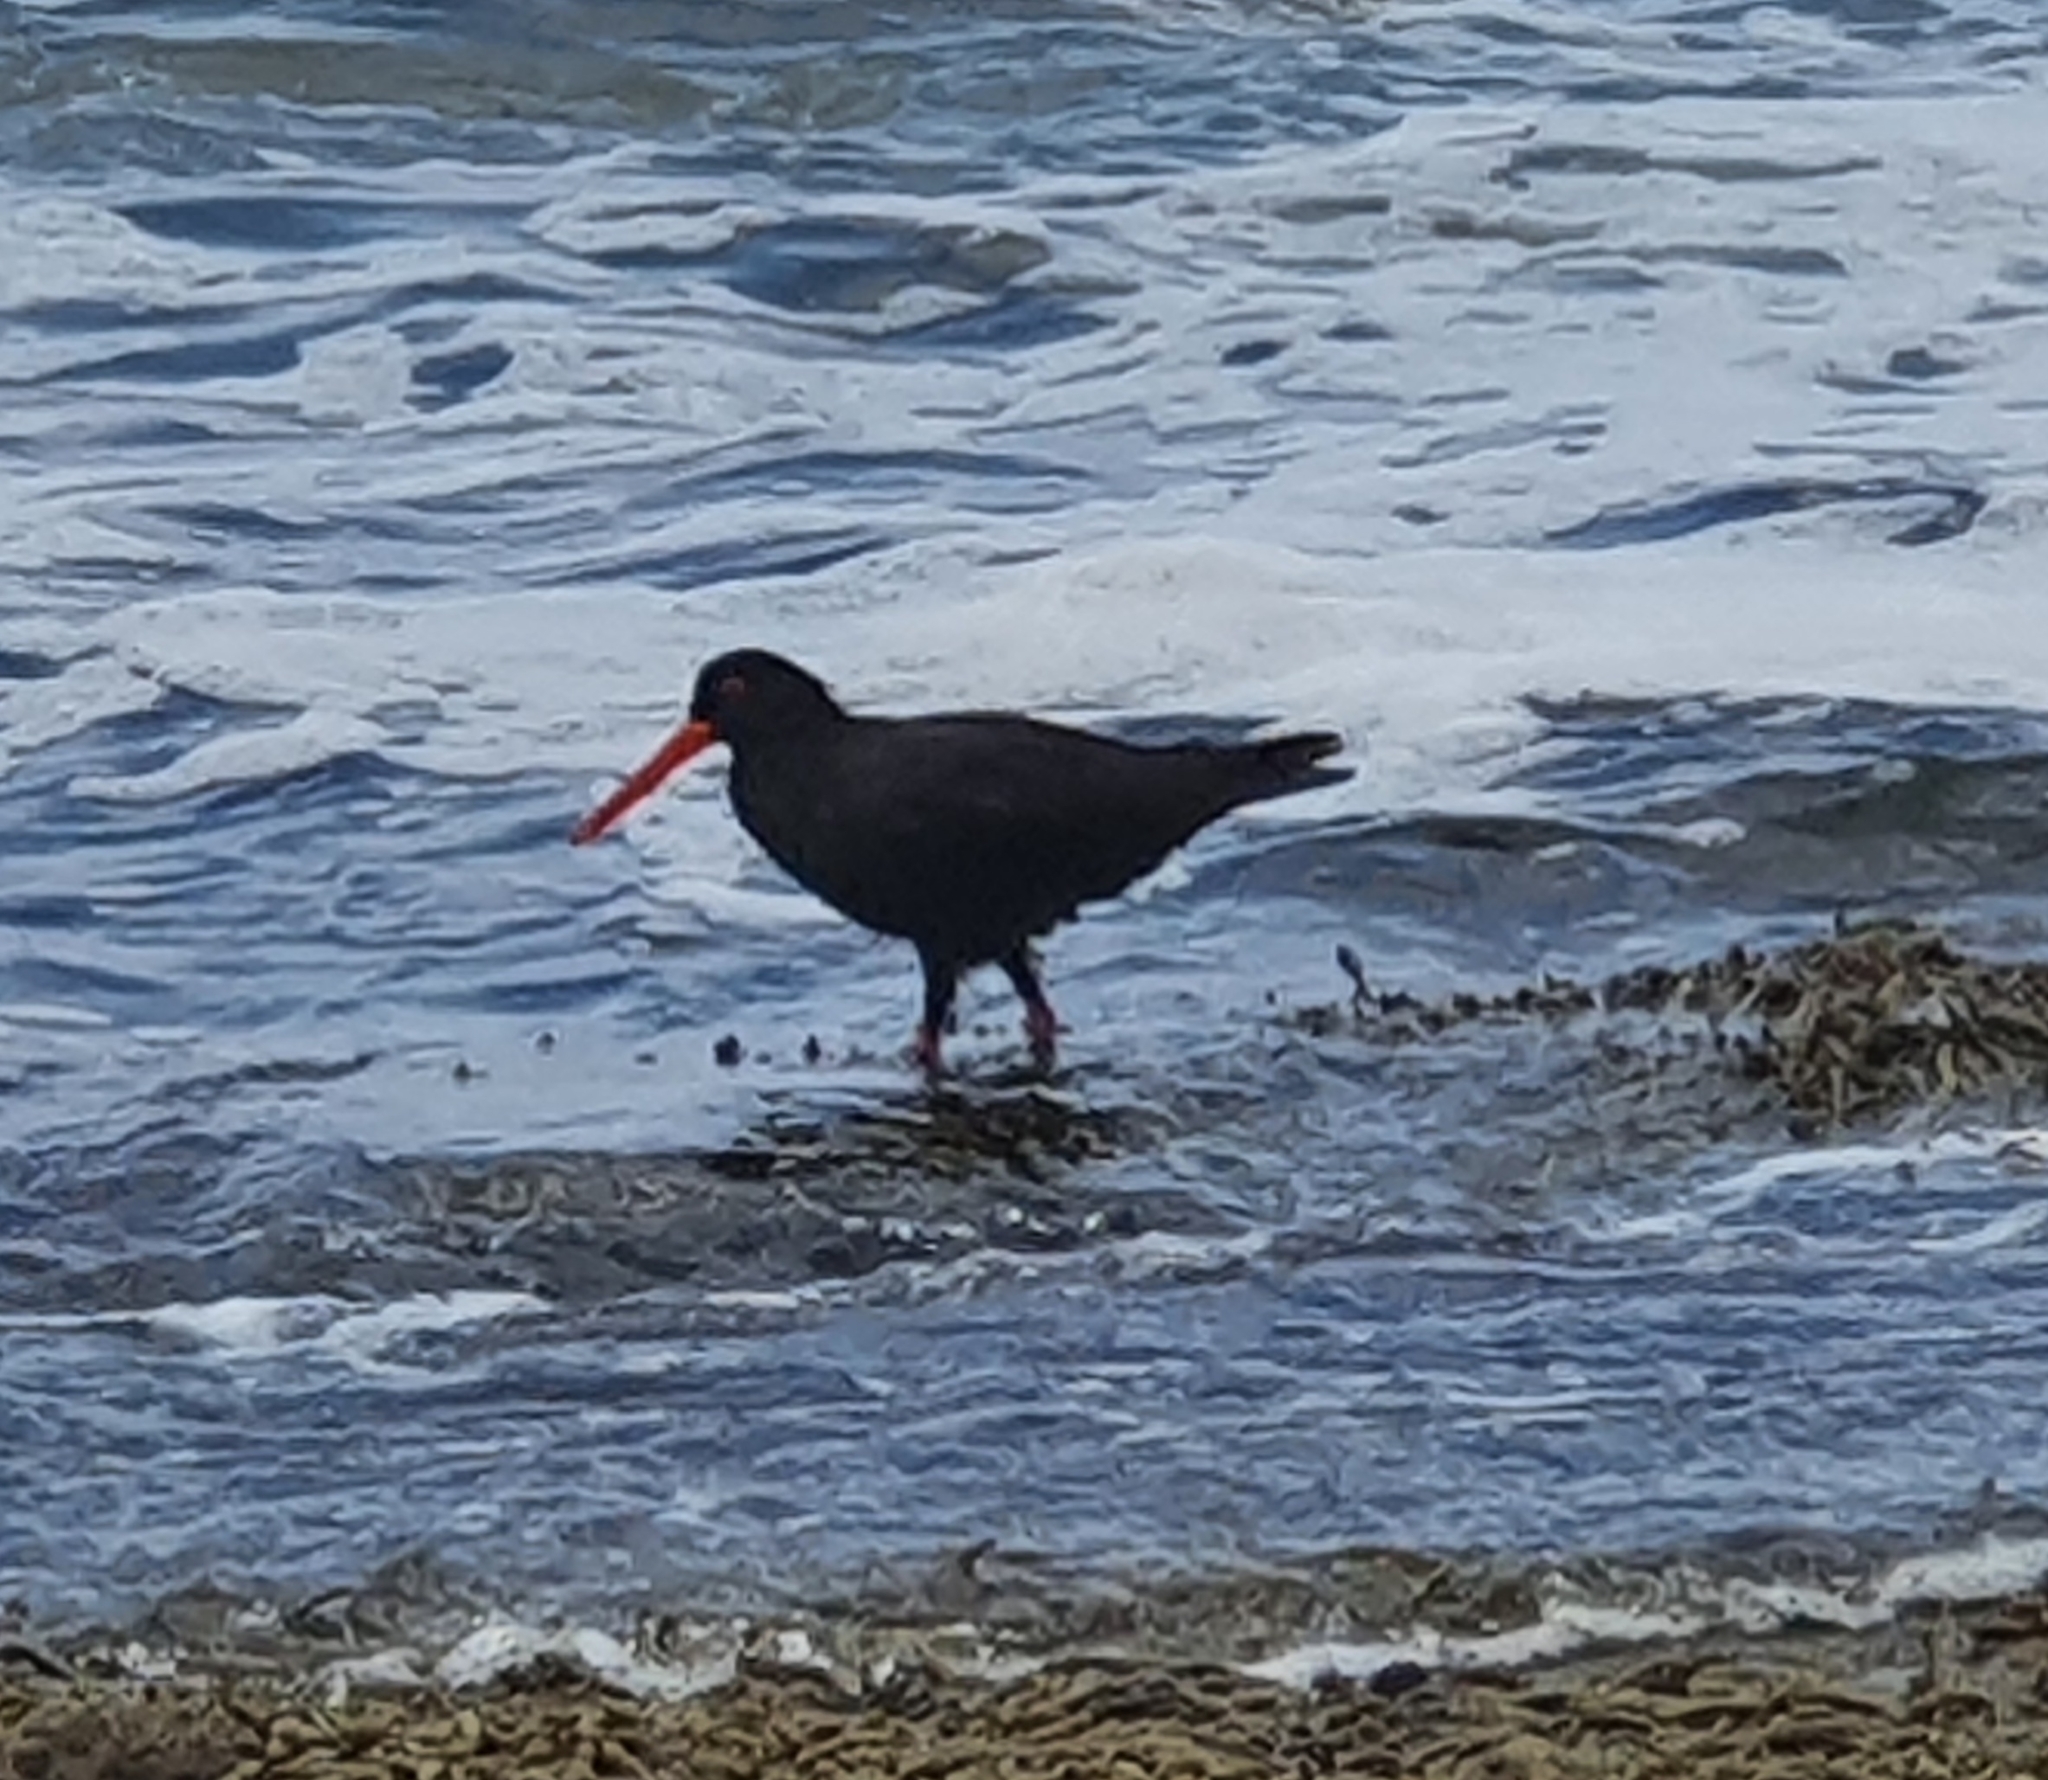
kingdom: Animalia
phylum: Chordata
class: Aves
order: Charadriiformes
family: Haematopodidae
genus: Haematopus
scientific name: Haematopus fuliginosus
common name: Sooty oystercatcher
